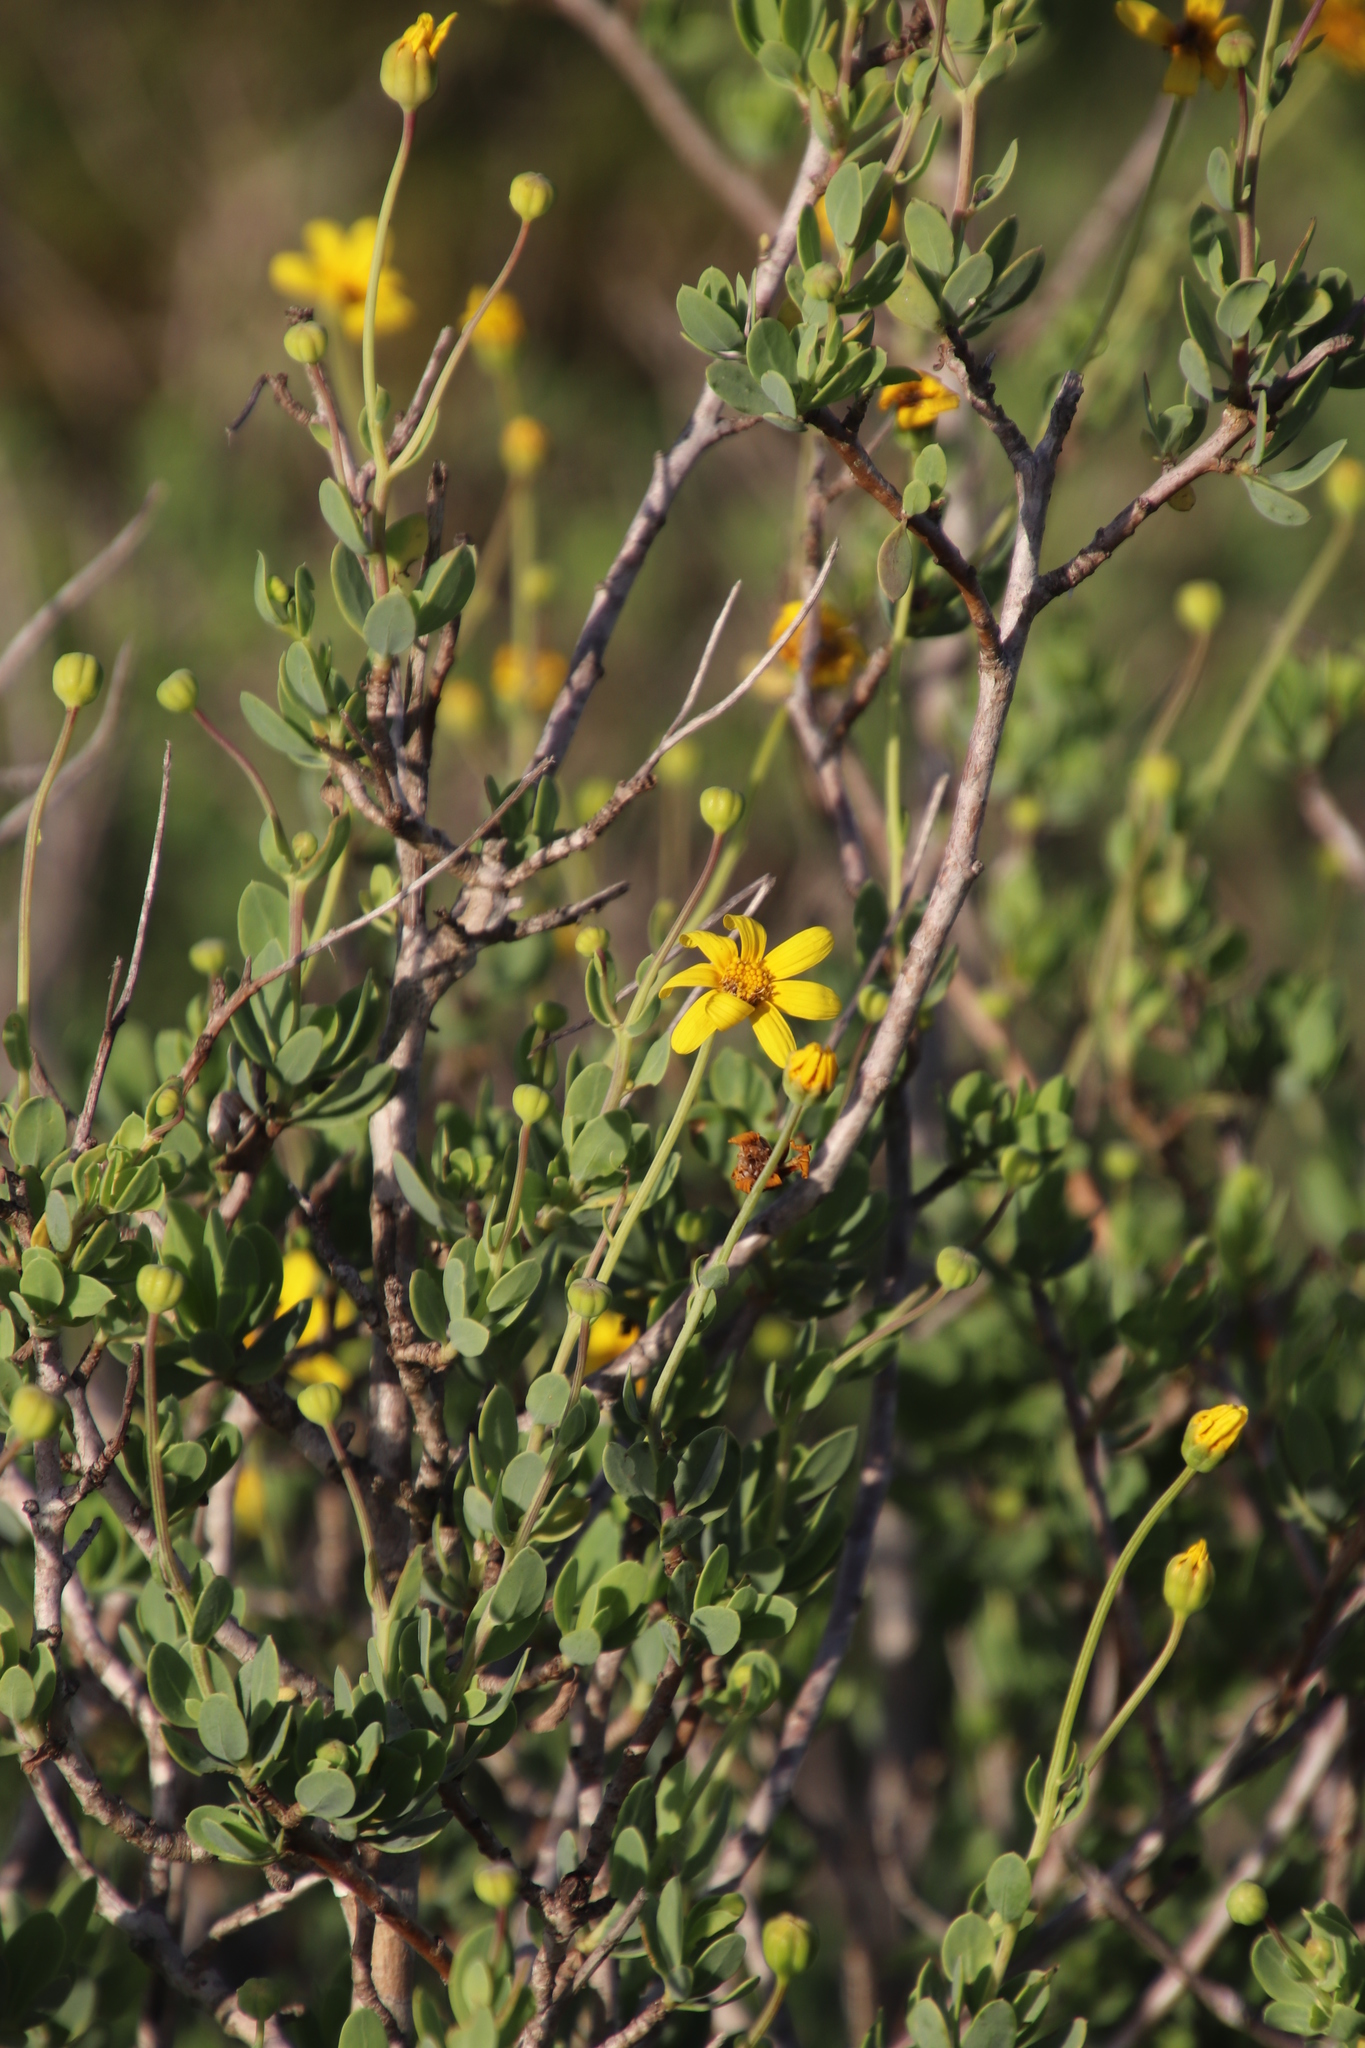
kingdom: Plantae
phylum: Tracheophyta
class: Magnoliopsida
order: Asterales
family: Asteraceae
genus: Othonna
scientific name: Othonna coronopifolia
